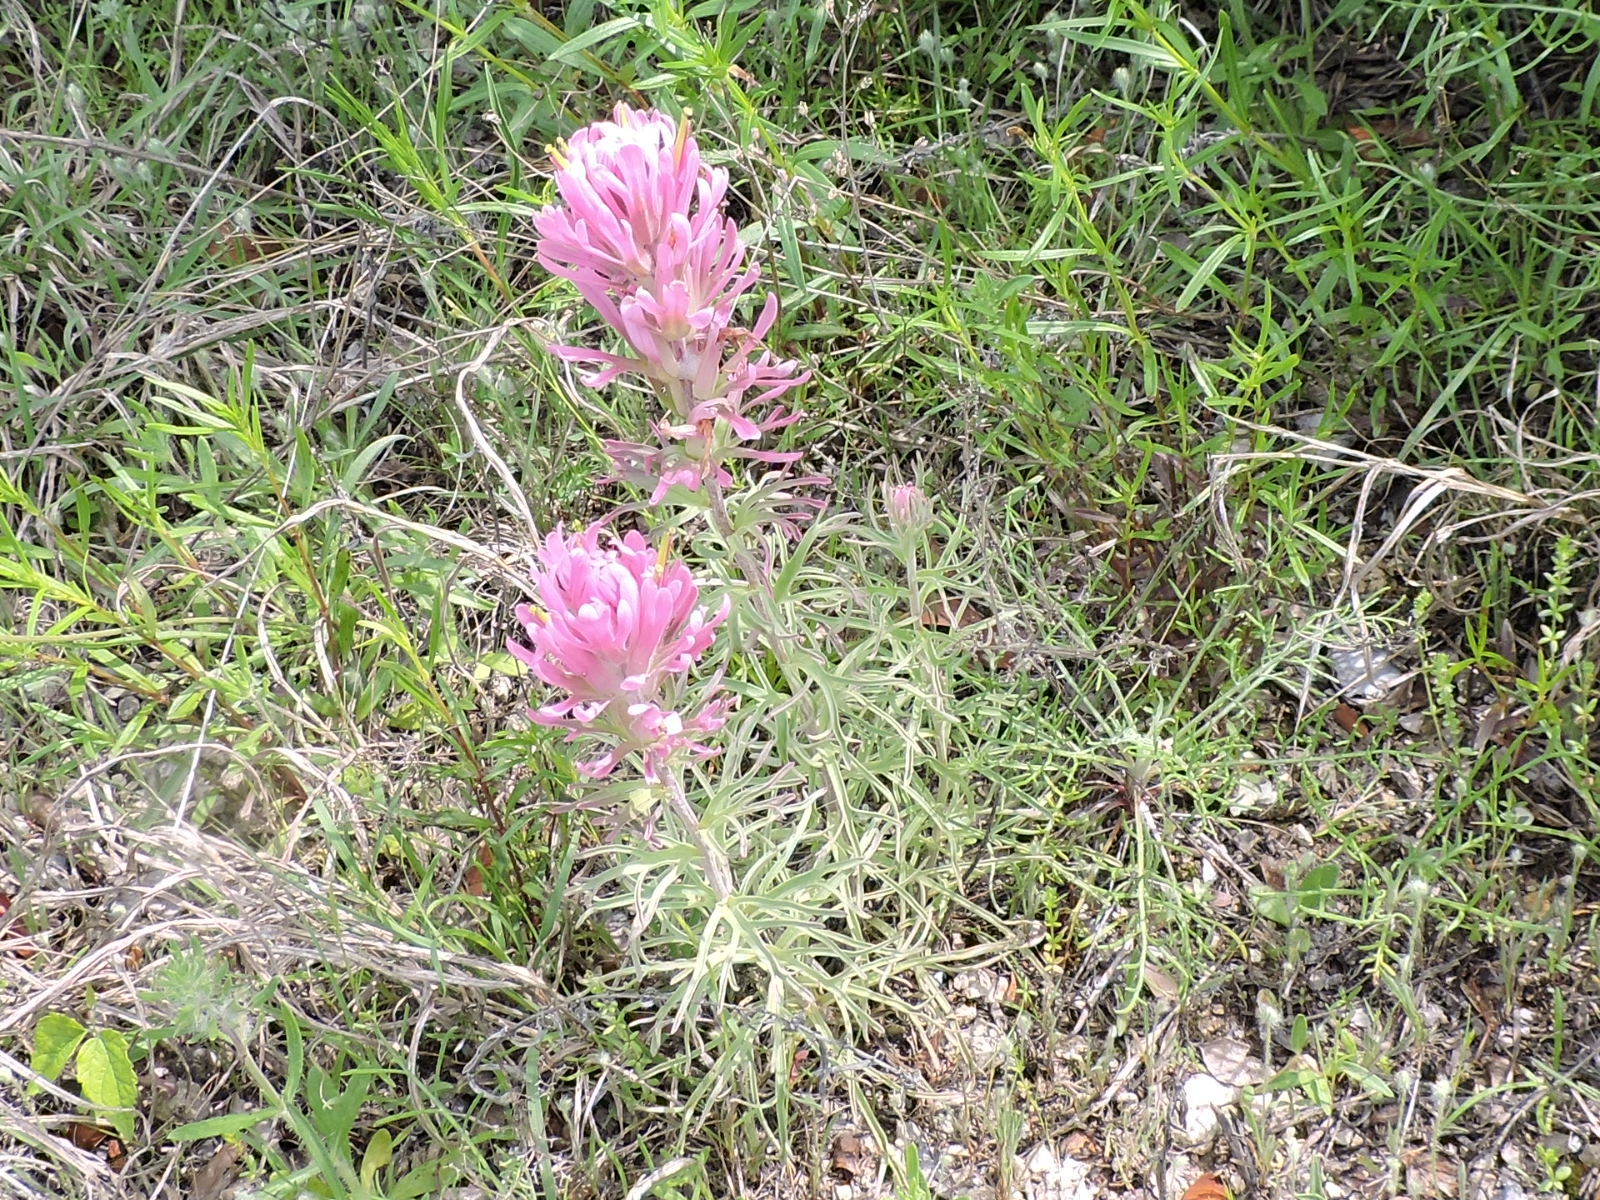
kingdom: Plantae
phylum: Tracheophyta
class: Magnoliopsida
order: Lamiales
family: Orobanchaceae
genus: Castilleja
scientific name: Castilleja purpurea
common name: Plains paintbrush
